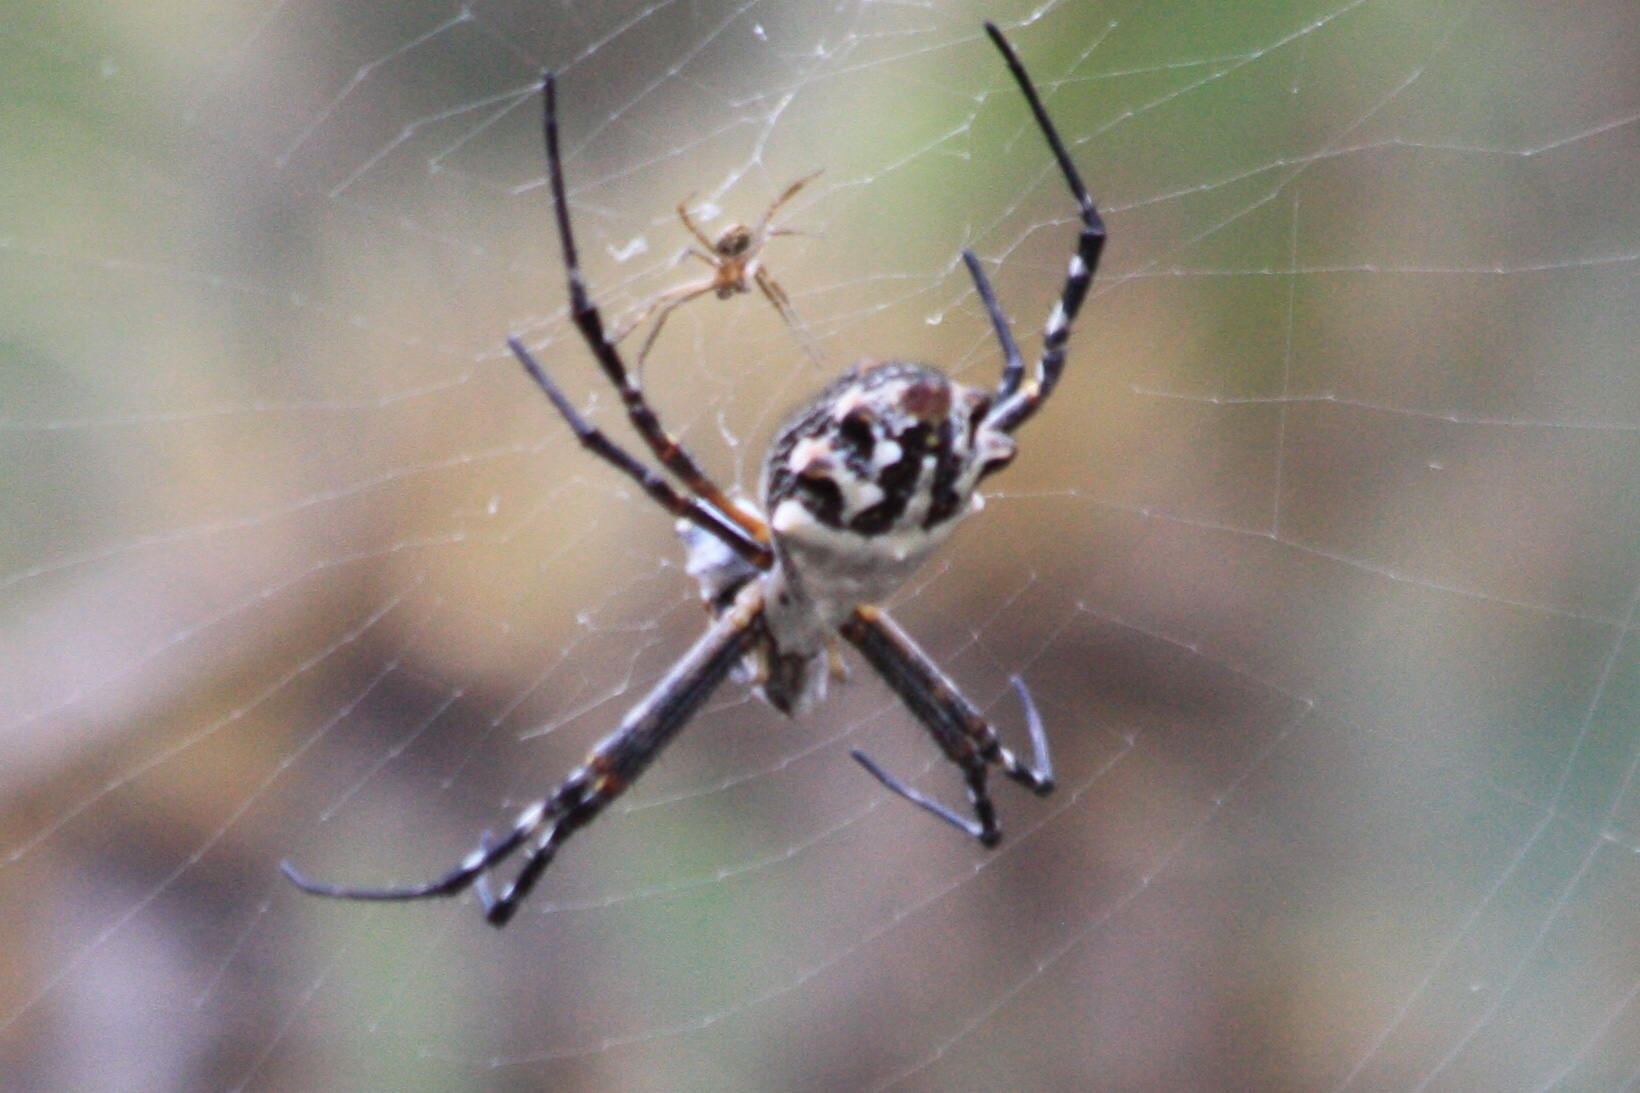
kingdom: Animalia
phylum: Arthropoda
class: Arachnida
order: Araneae
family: Araneidae
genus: Argiope
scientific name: Argiope argentata
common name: Orb weavers
